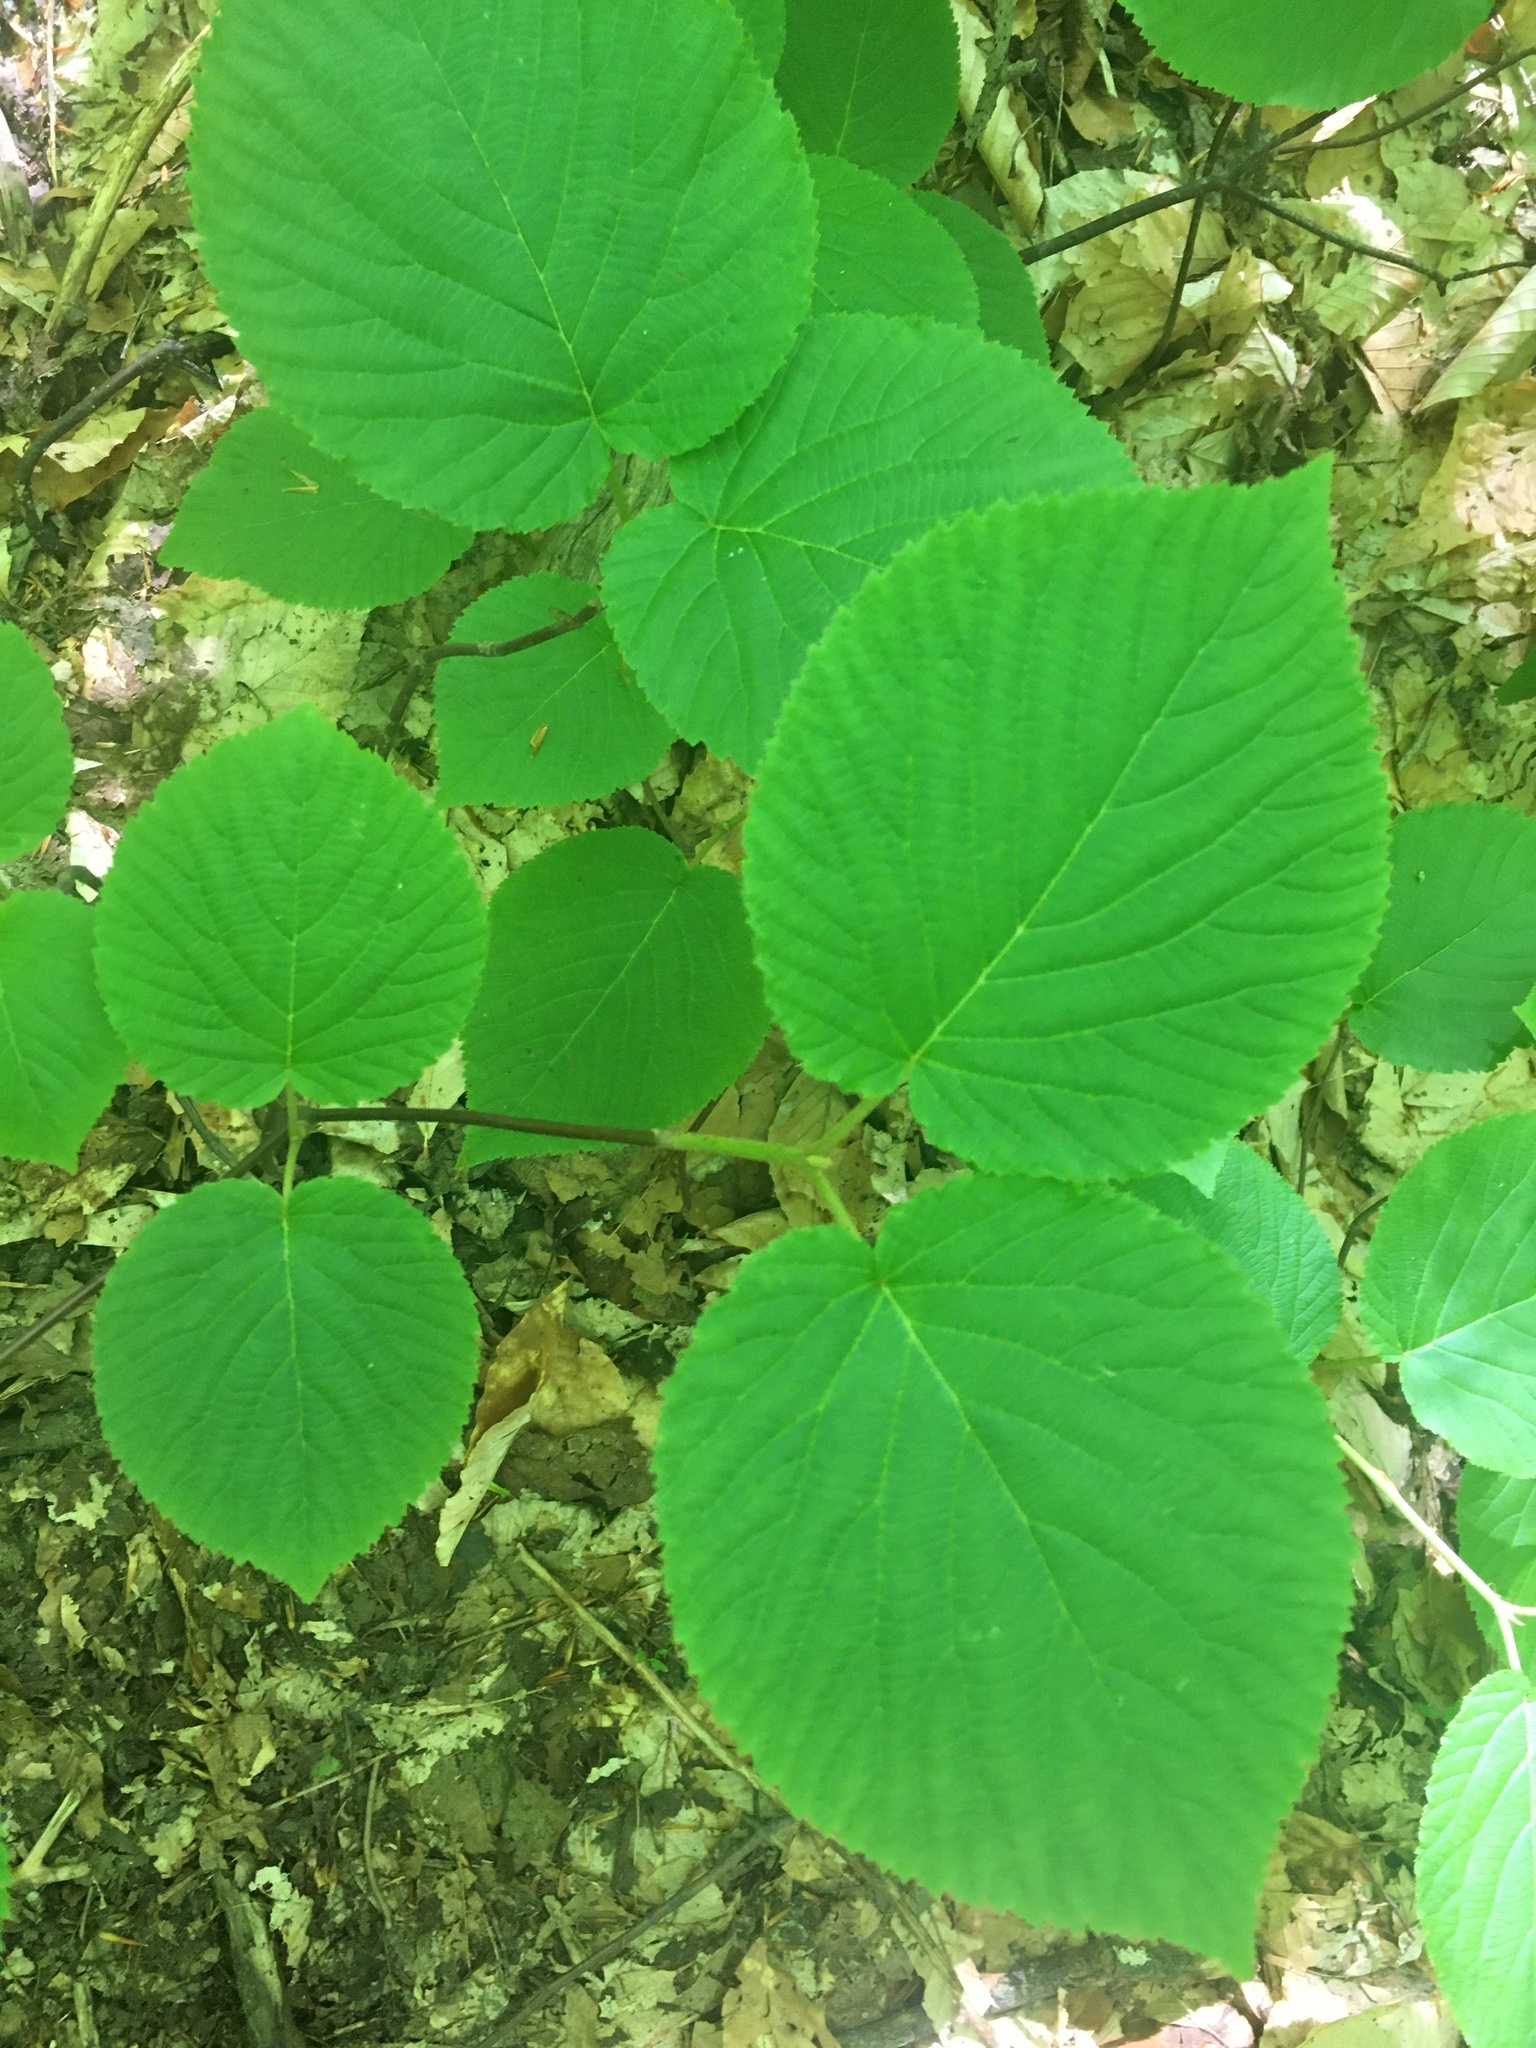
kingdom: Plantae
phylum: Tracheophyta
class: Magnoliopsida
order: Dipsacales
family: Viburnaceae
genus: Viburnum
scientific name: Viburnum lantanoides
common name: Hobblebush
